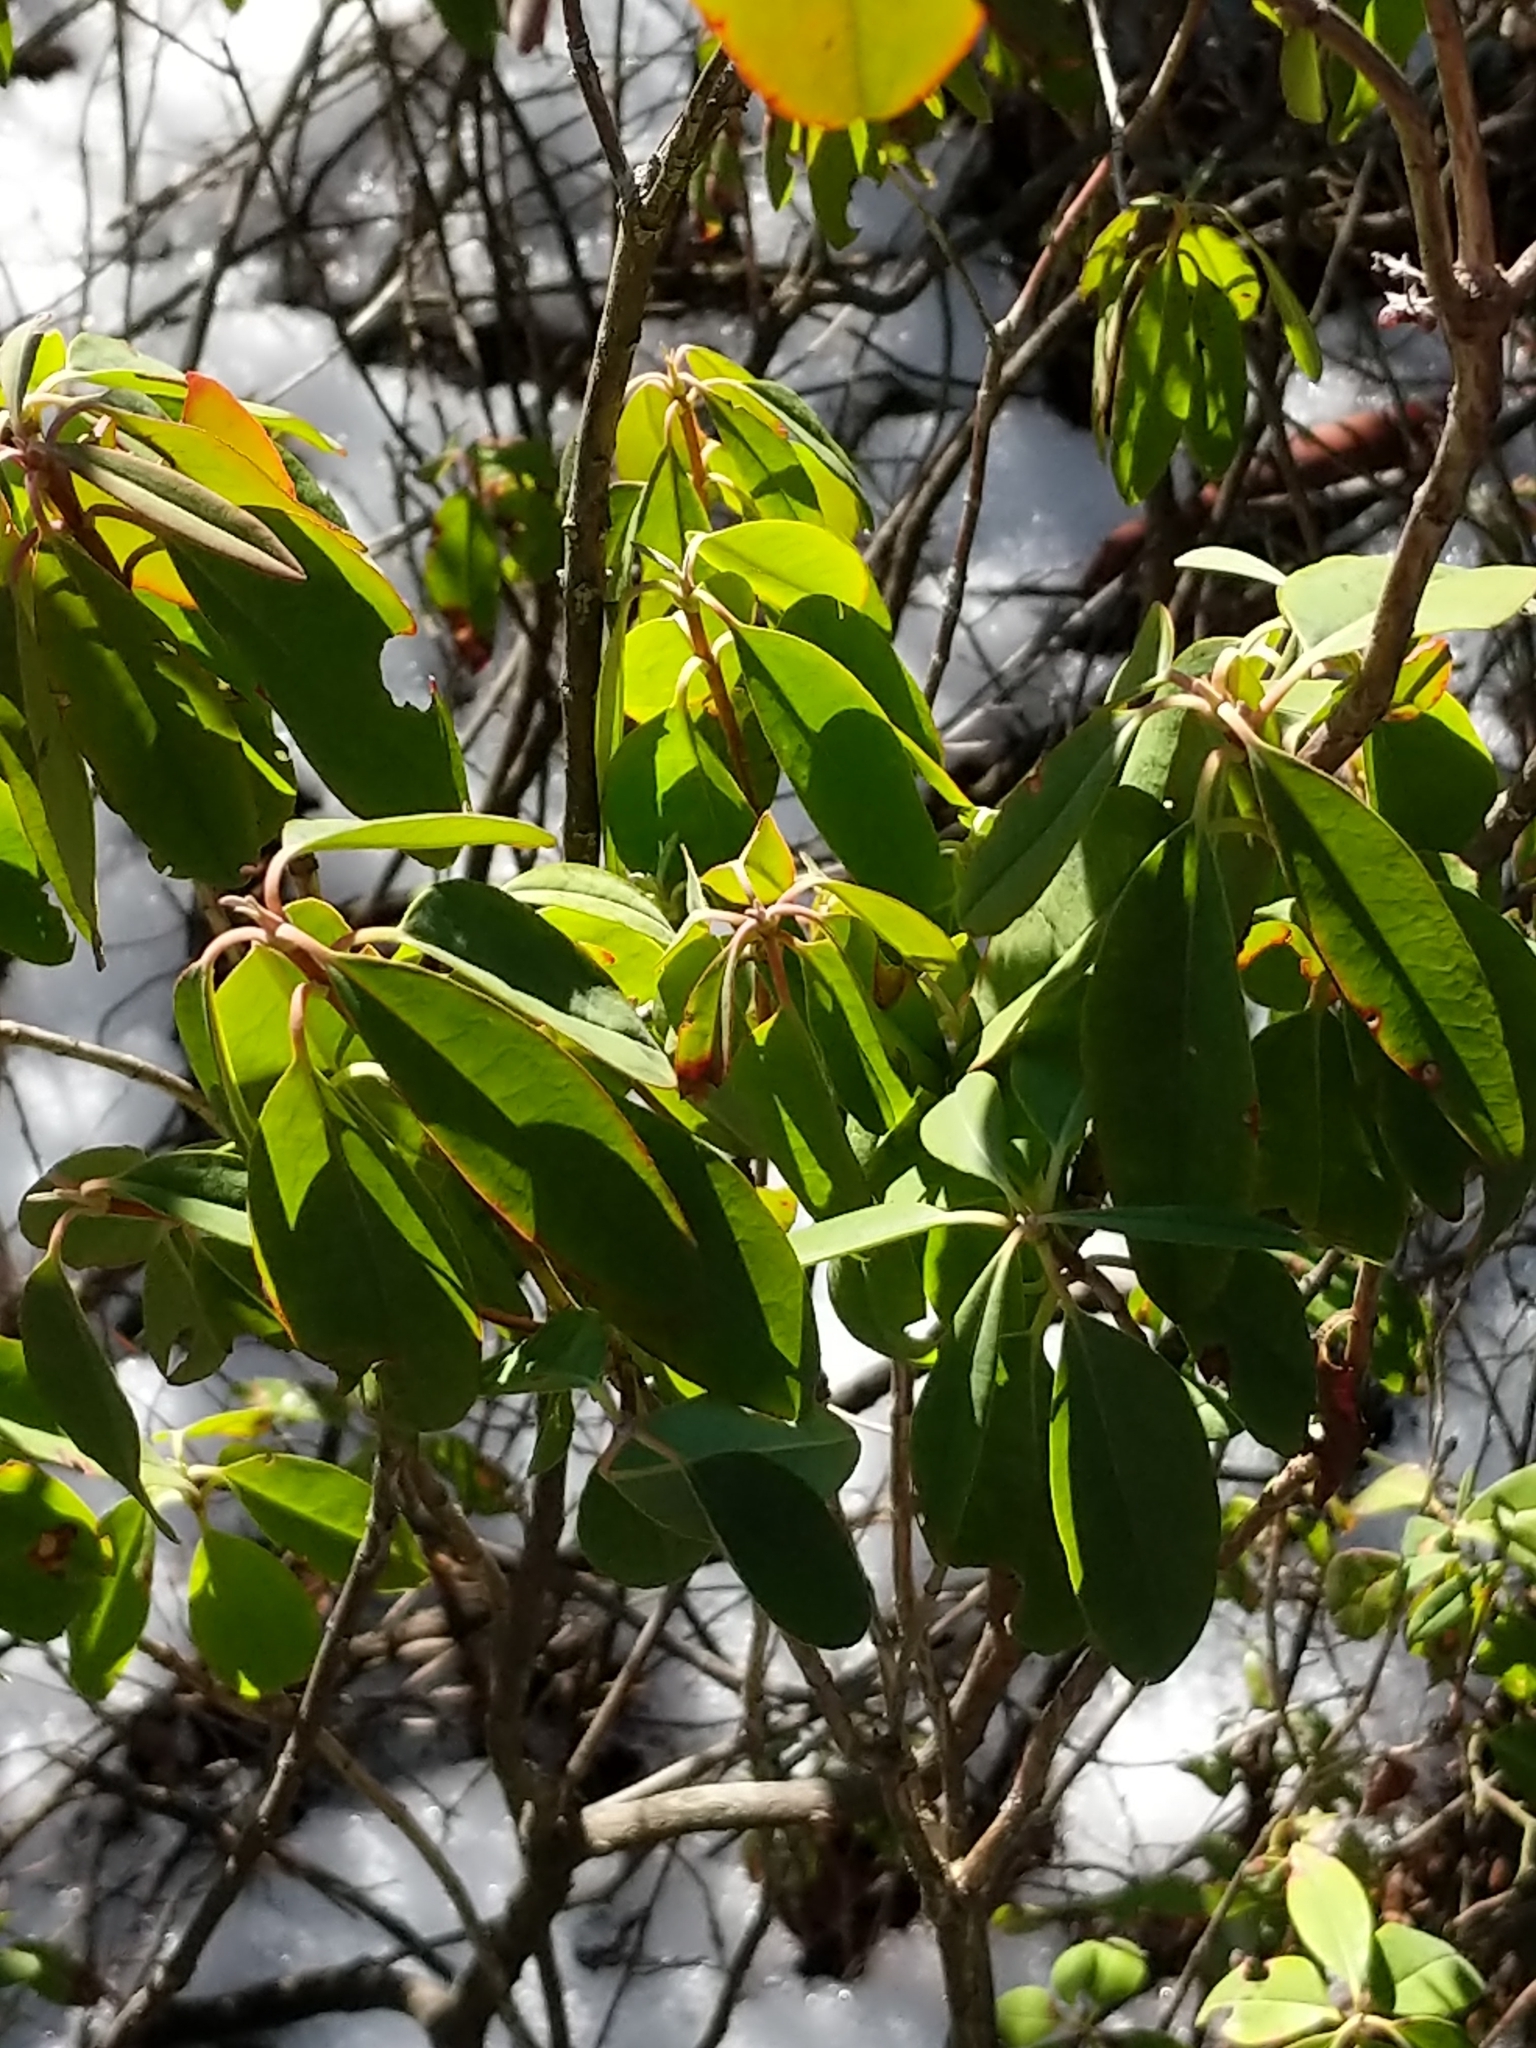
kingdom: Plantae
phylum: Tracheophyta
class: Magnoliopsida
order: Ericales
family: Ericaceae
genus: Kalmia
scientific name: Kalmia angustifolia
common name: Sheep-laurel
